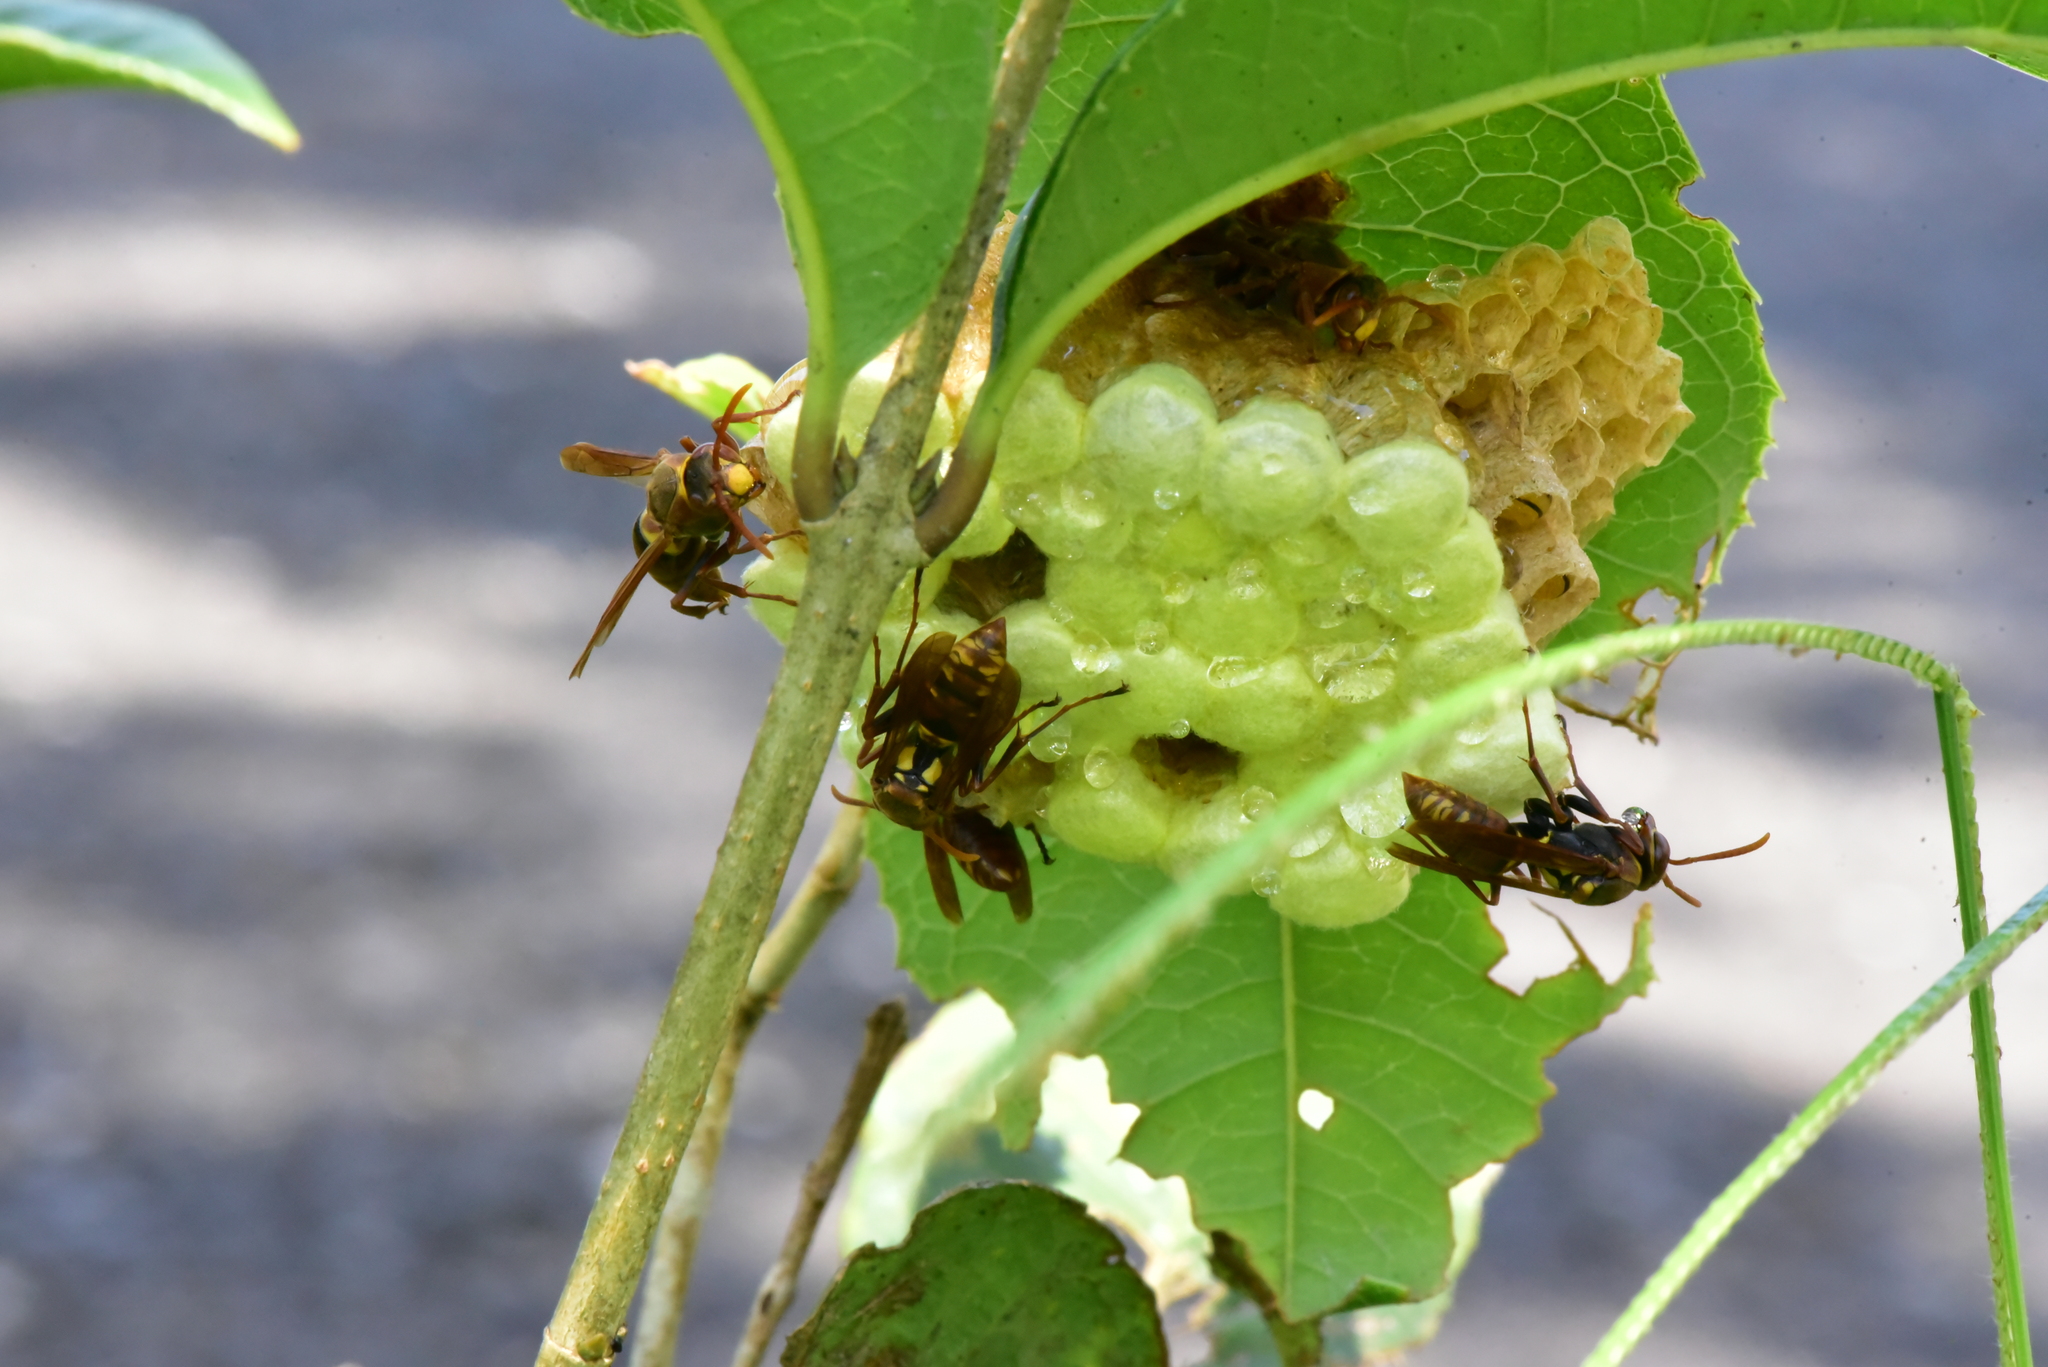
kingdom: Animalia
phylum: Arthropoda
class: Insecta
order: Hymenoptera
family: Eumenidae
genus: Polistes
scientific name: Polistes takasagonus
